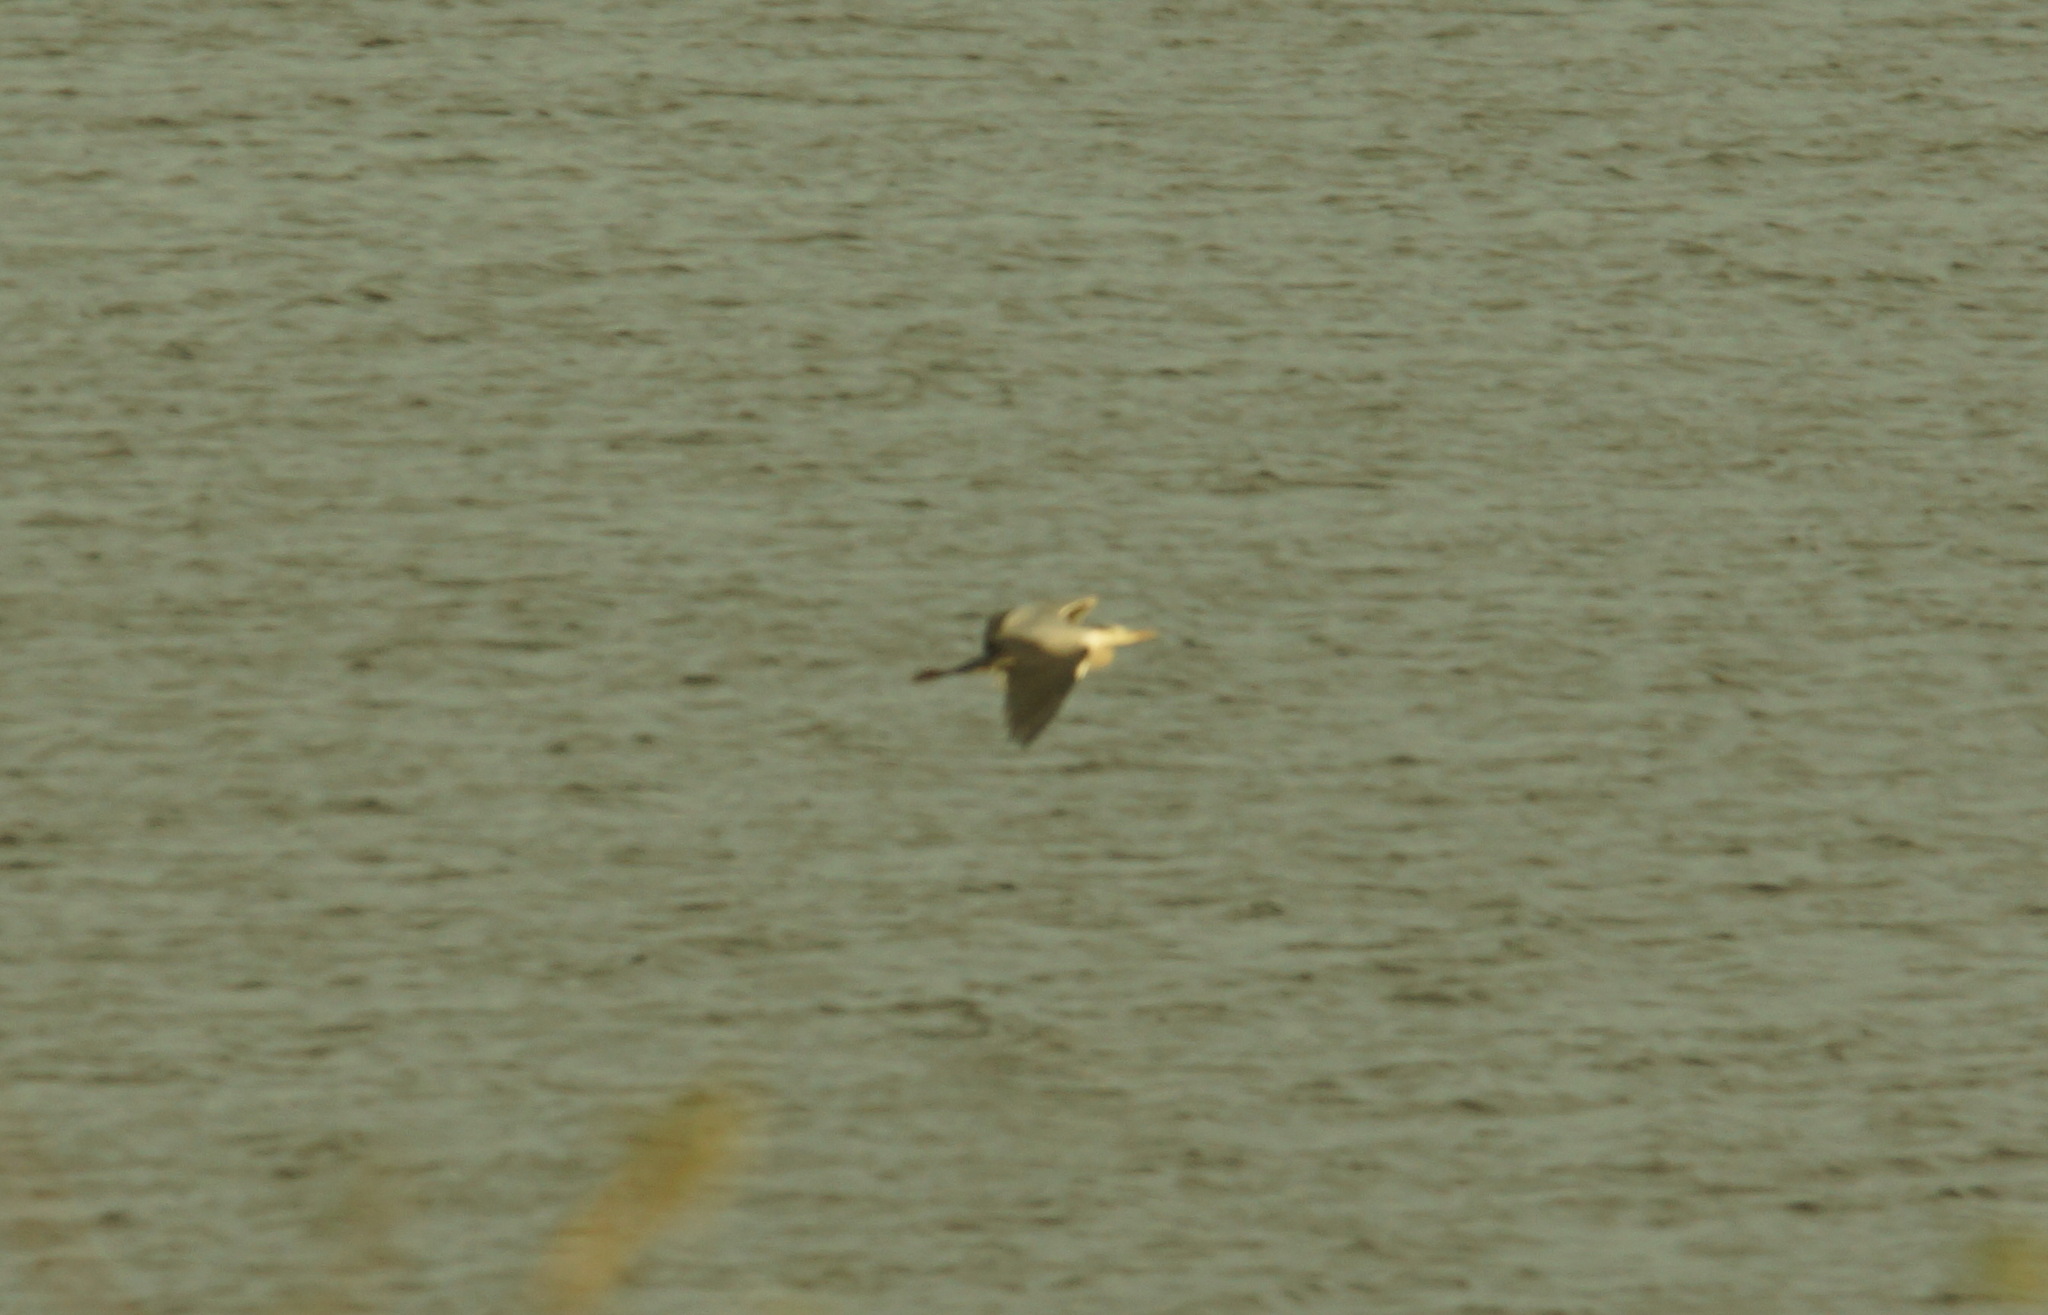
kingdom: Animalia
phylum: Chordata
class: Aves
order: Pelecaniformes
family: Ardeidae
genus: Ardea
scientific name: Ardea cinerea
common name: Grey heron
